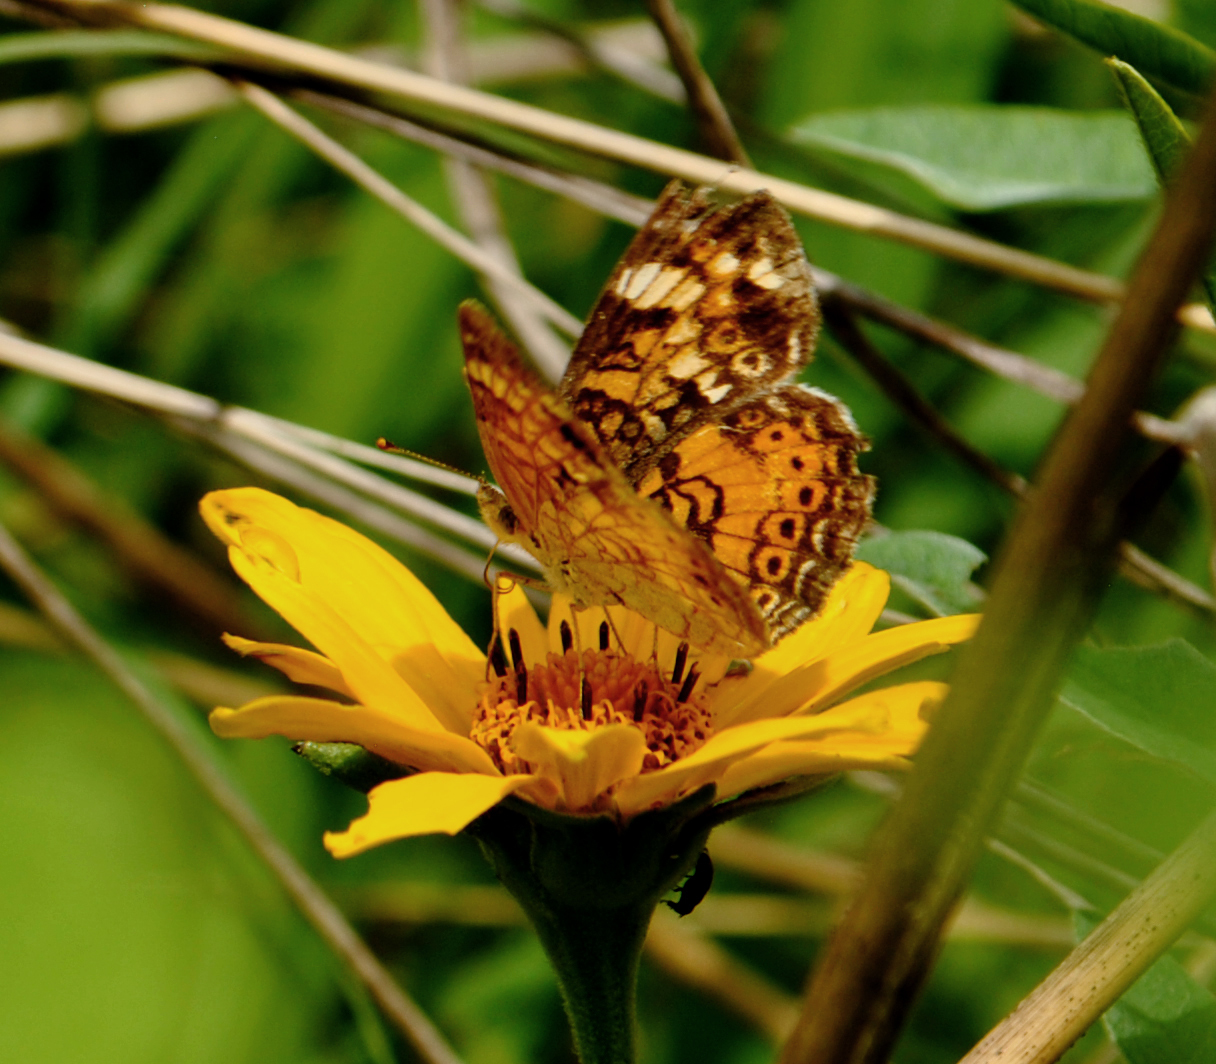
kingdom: Animalia
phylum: Arthropoda
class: Insecta
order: Lepidoptera
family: Nymphalidae
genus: Phyciodes
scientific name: Phyciodes tharos
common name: Pearl crescent
